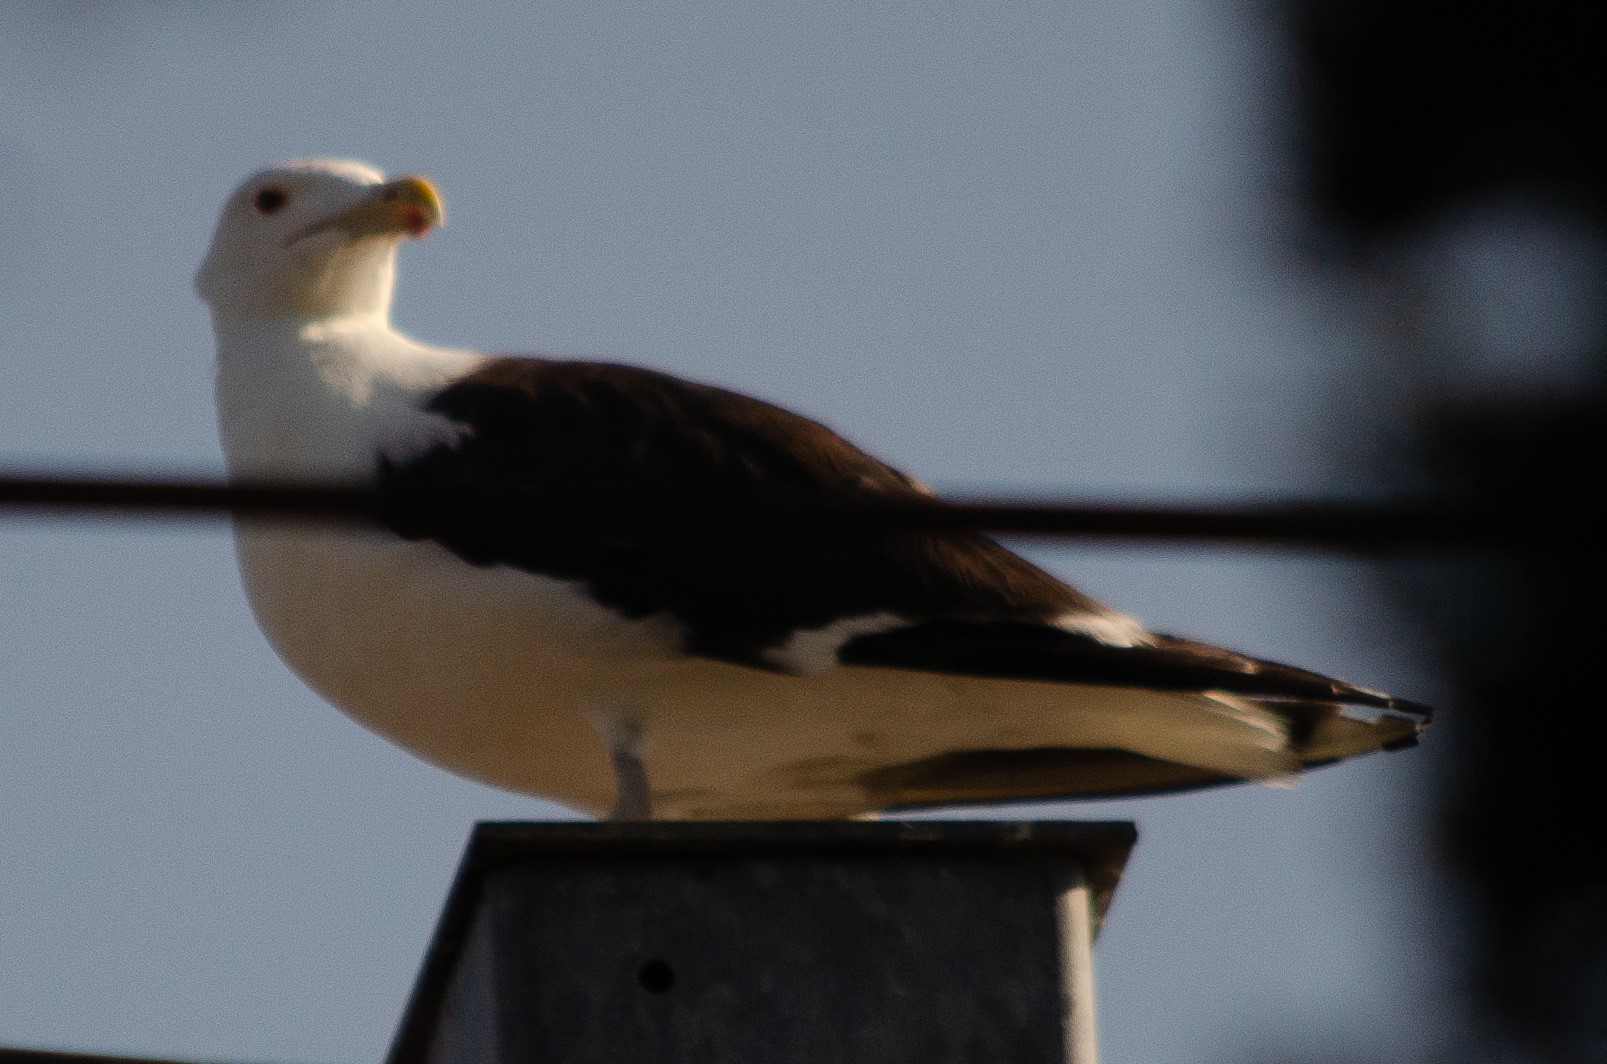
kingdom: Animalia
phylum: Chordata
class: Aves
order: Charadriiformes
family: Laridae
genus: Larus
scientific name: Larus marinus
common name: Great black-backed gull
